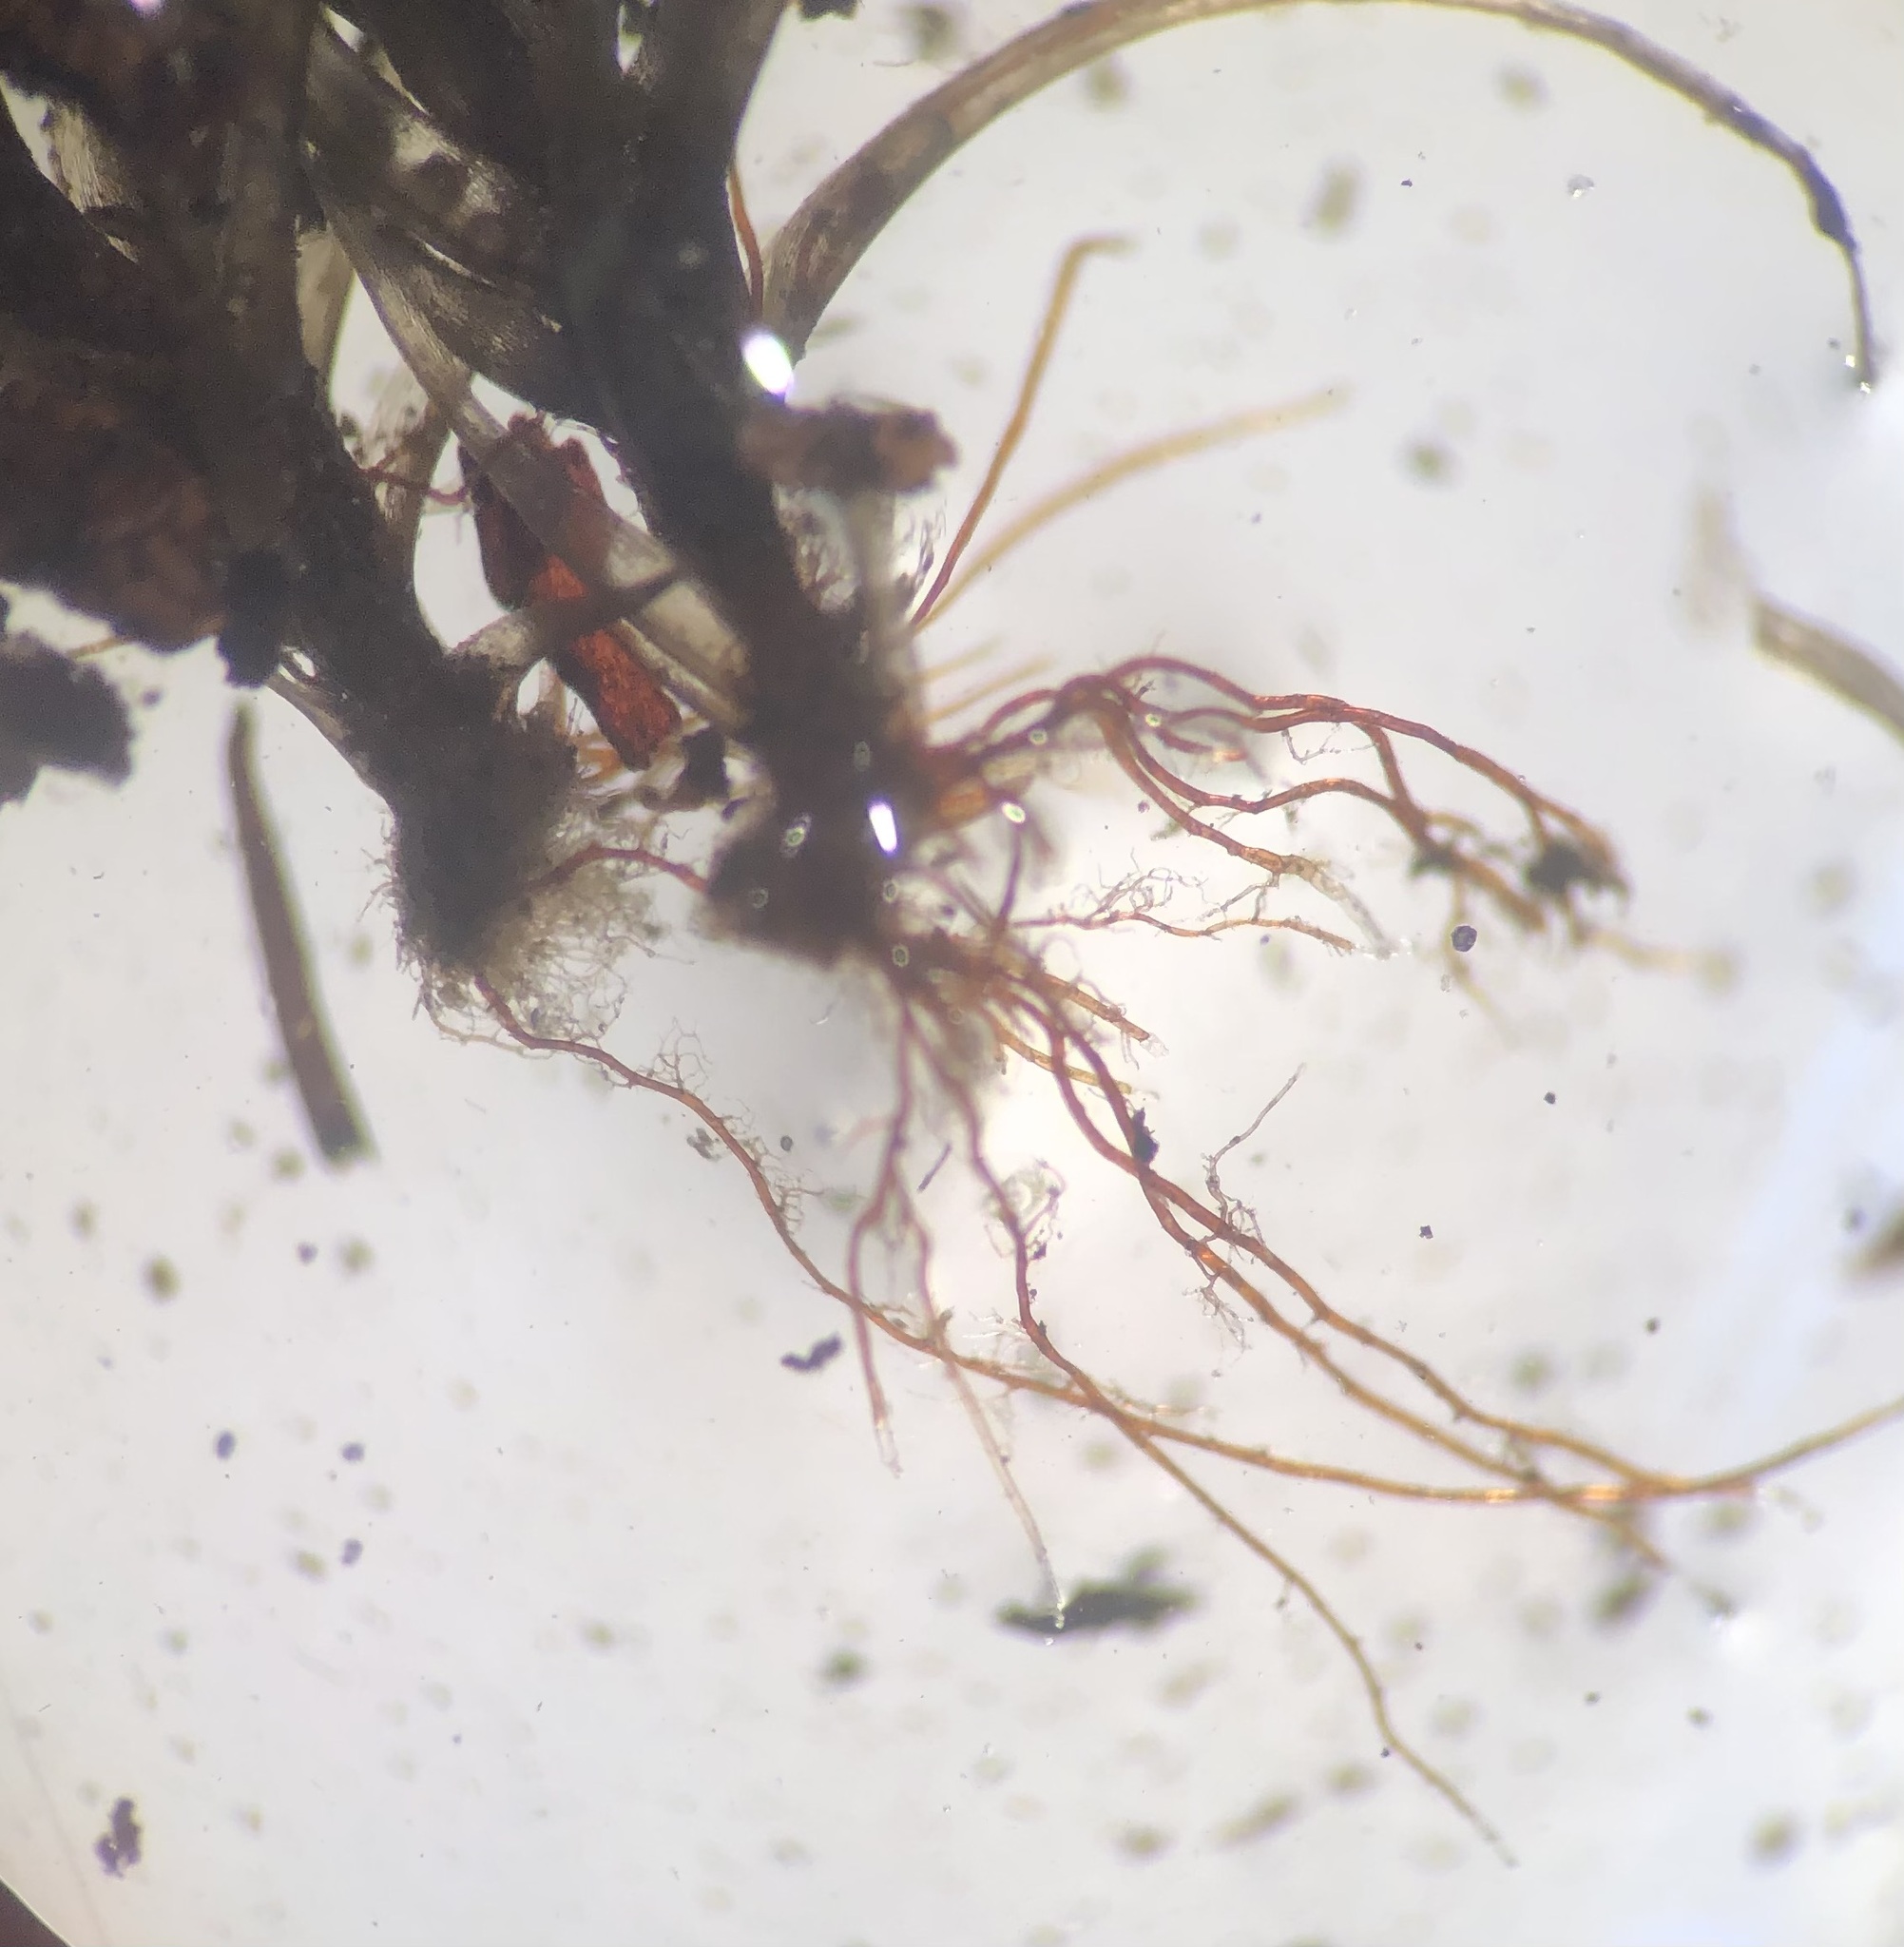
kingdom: Plantae
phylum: Bryophyta
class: Bryopsida
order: Dicranales
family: Dicranaceae
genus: Dicranum
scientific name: Dicranum scoparium
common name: Broom fork-moss
